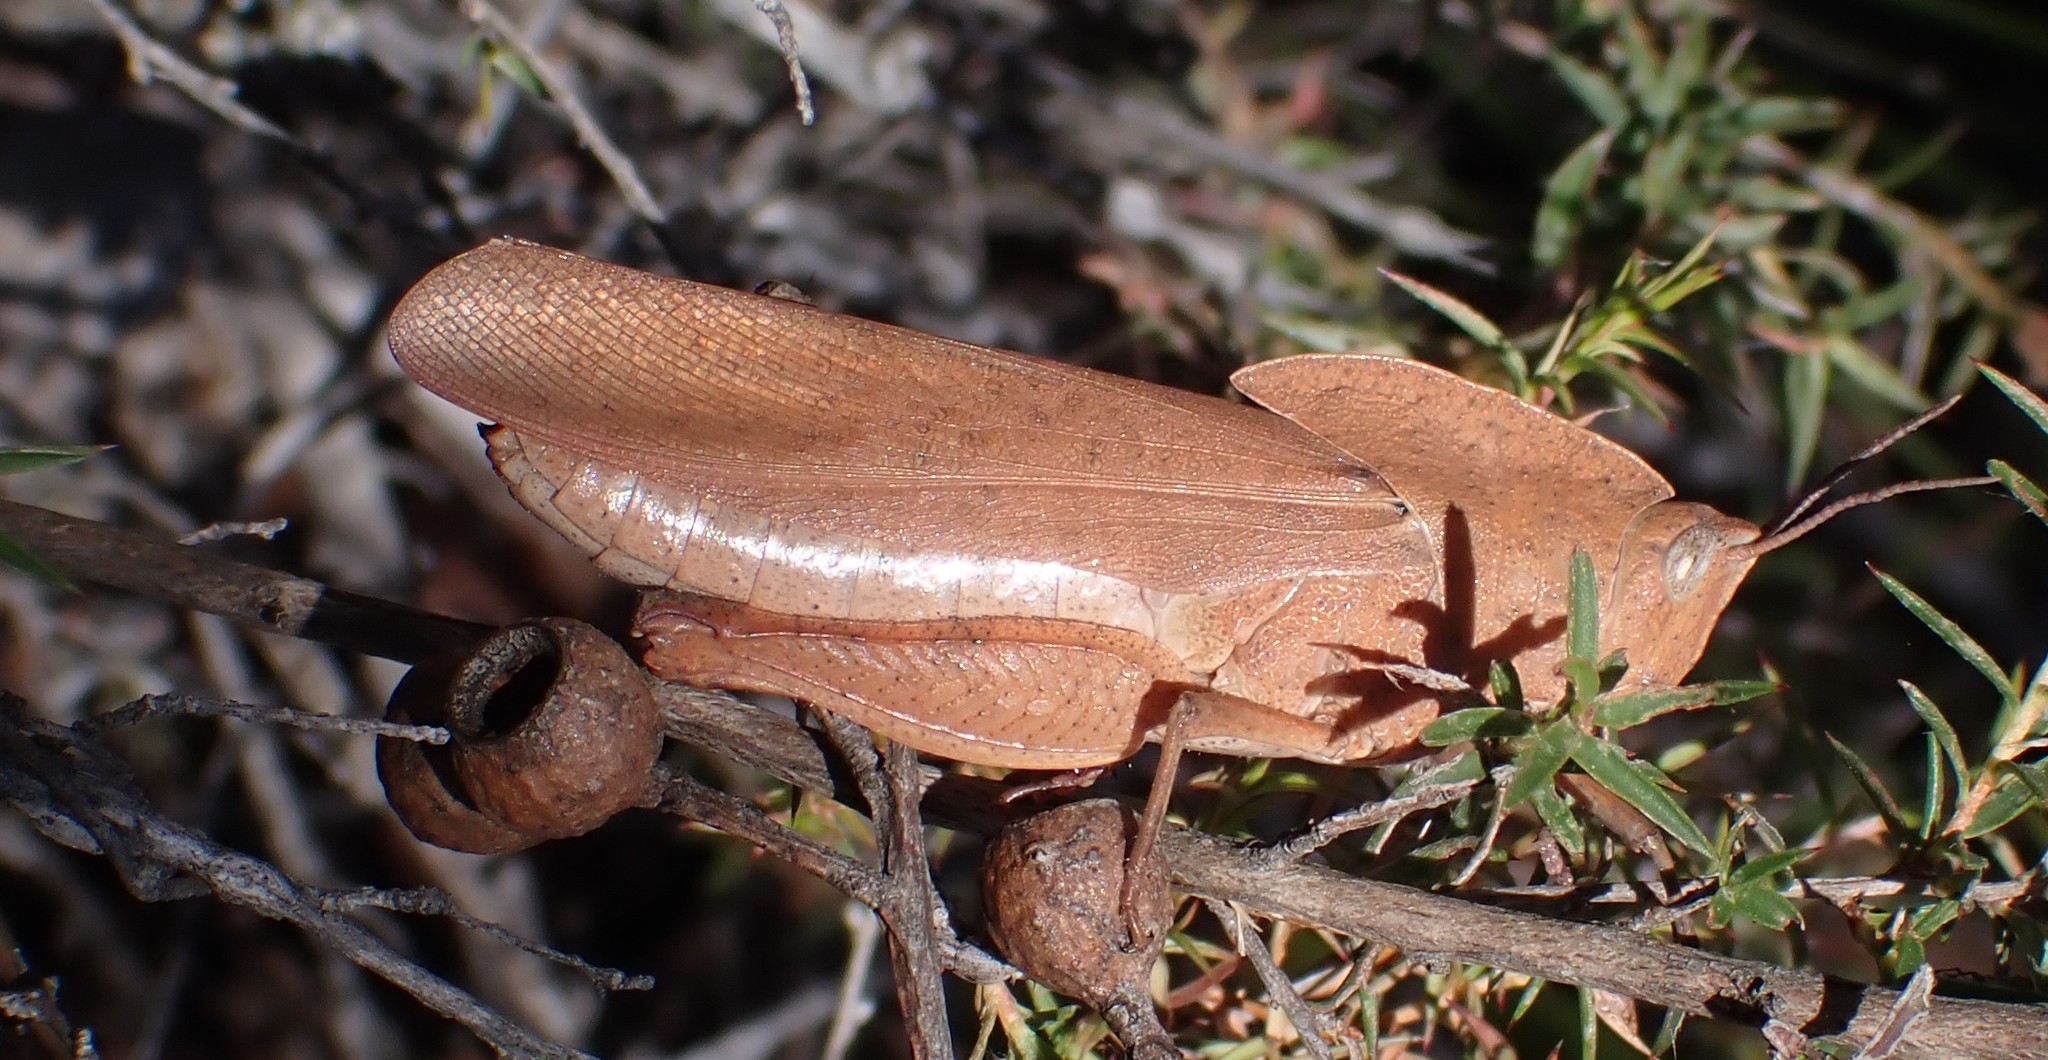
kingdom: Animalia
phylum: Arthropoda
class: Insecta
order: Orthoptera
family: Acrididae
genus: Goniaea
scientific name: Goniaea australasiae
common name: Gumleaf grasshopper
